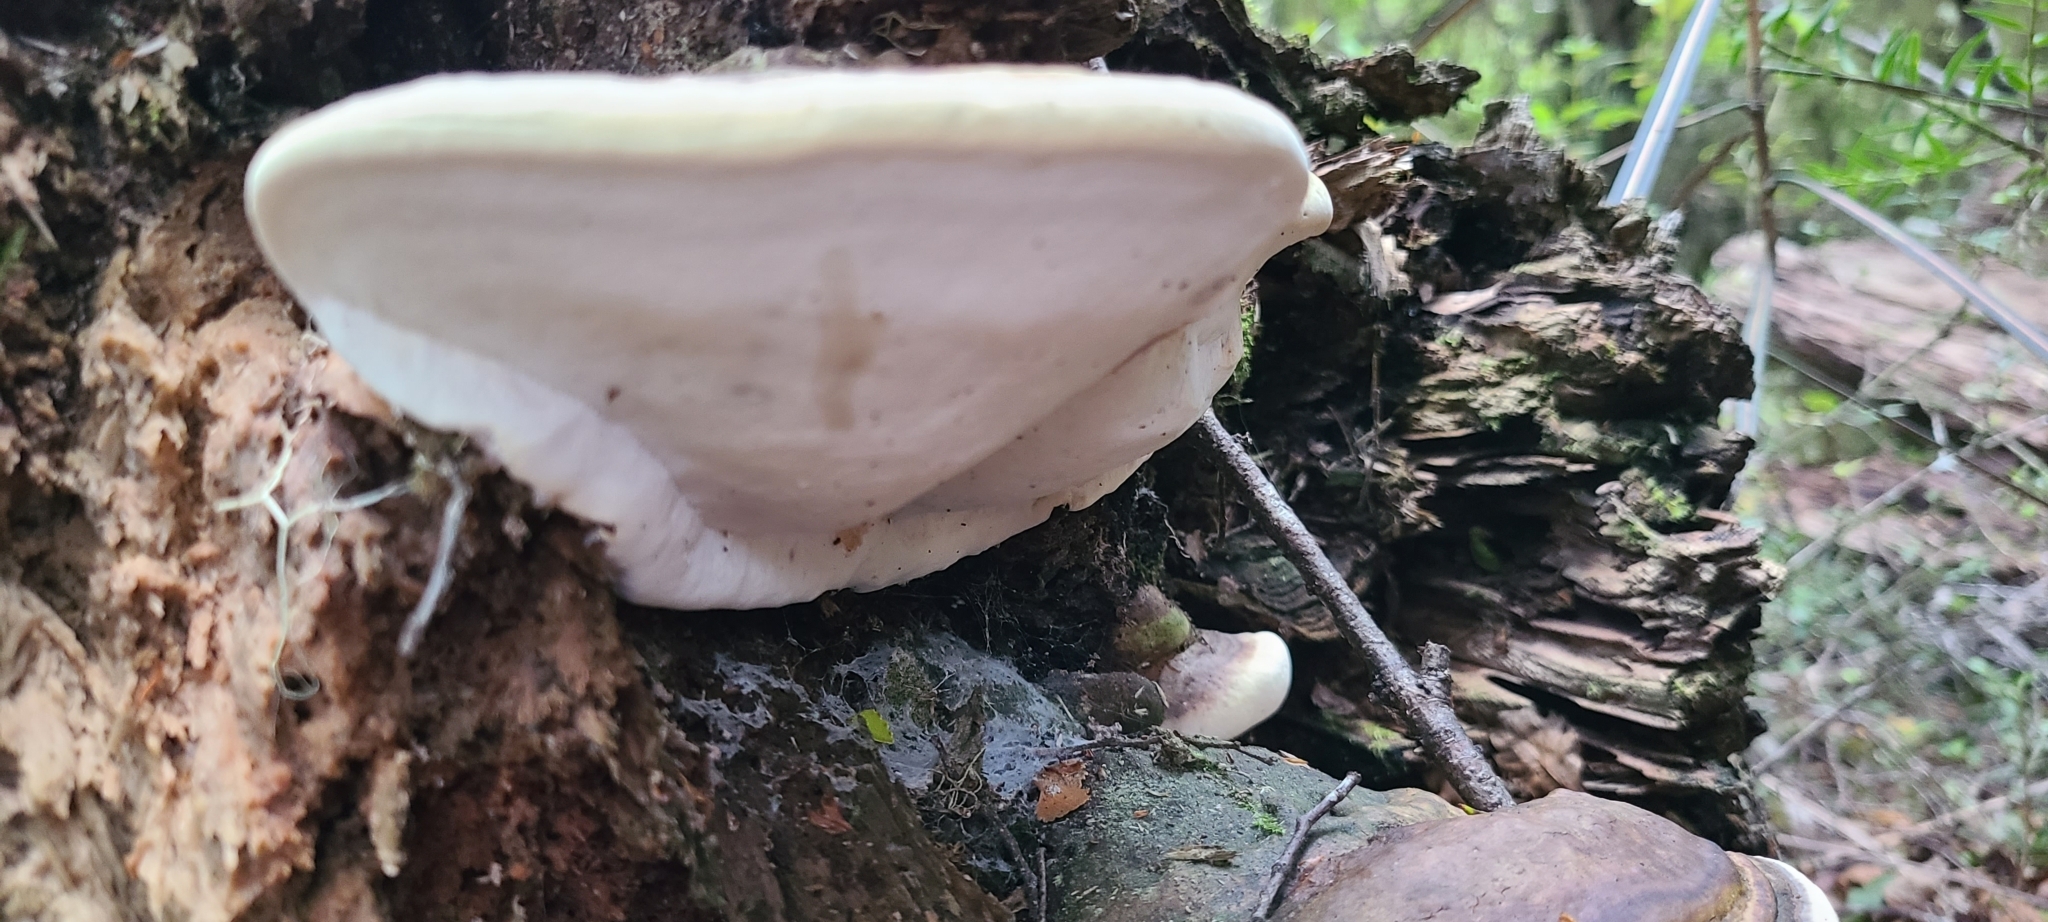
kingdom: Fungi
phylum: Basidiomycota
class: Agaricomycetes
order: Polyporales
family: Fomitopsidaceae
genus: Pilatoporus
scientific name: Pilatoporus hemitephrus
